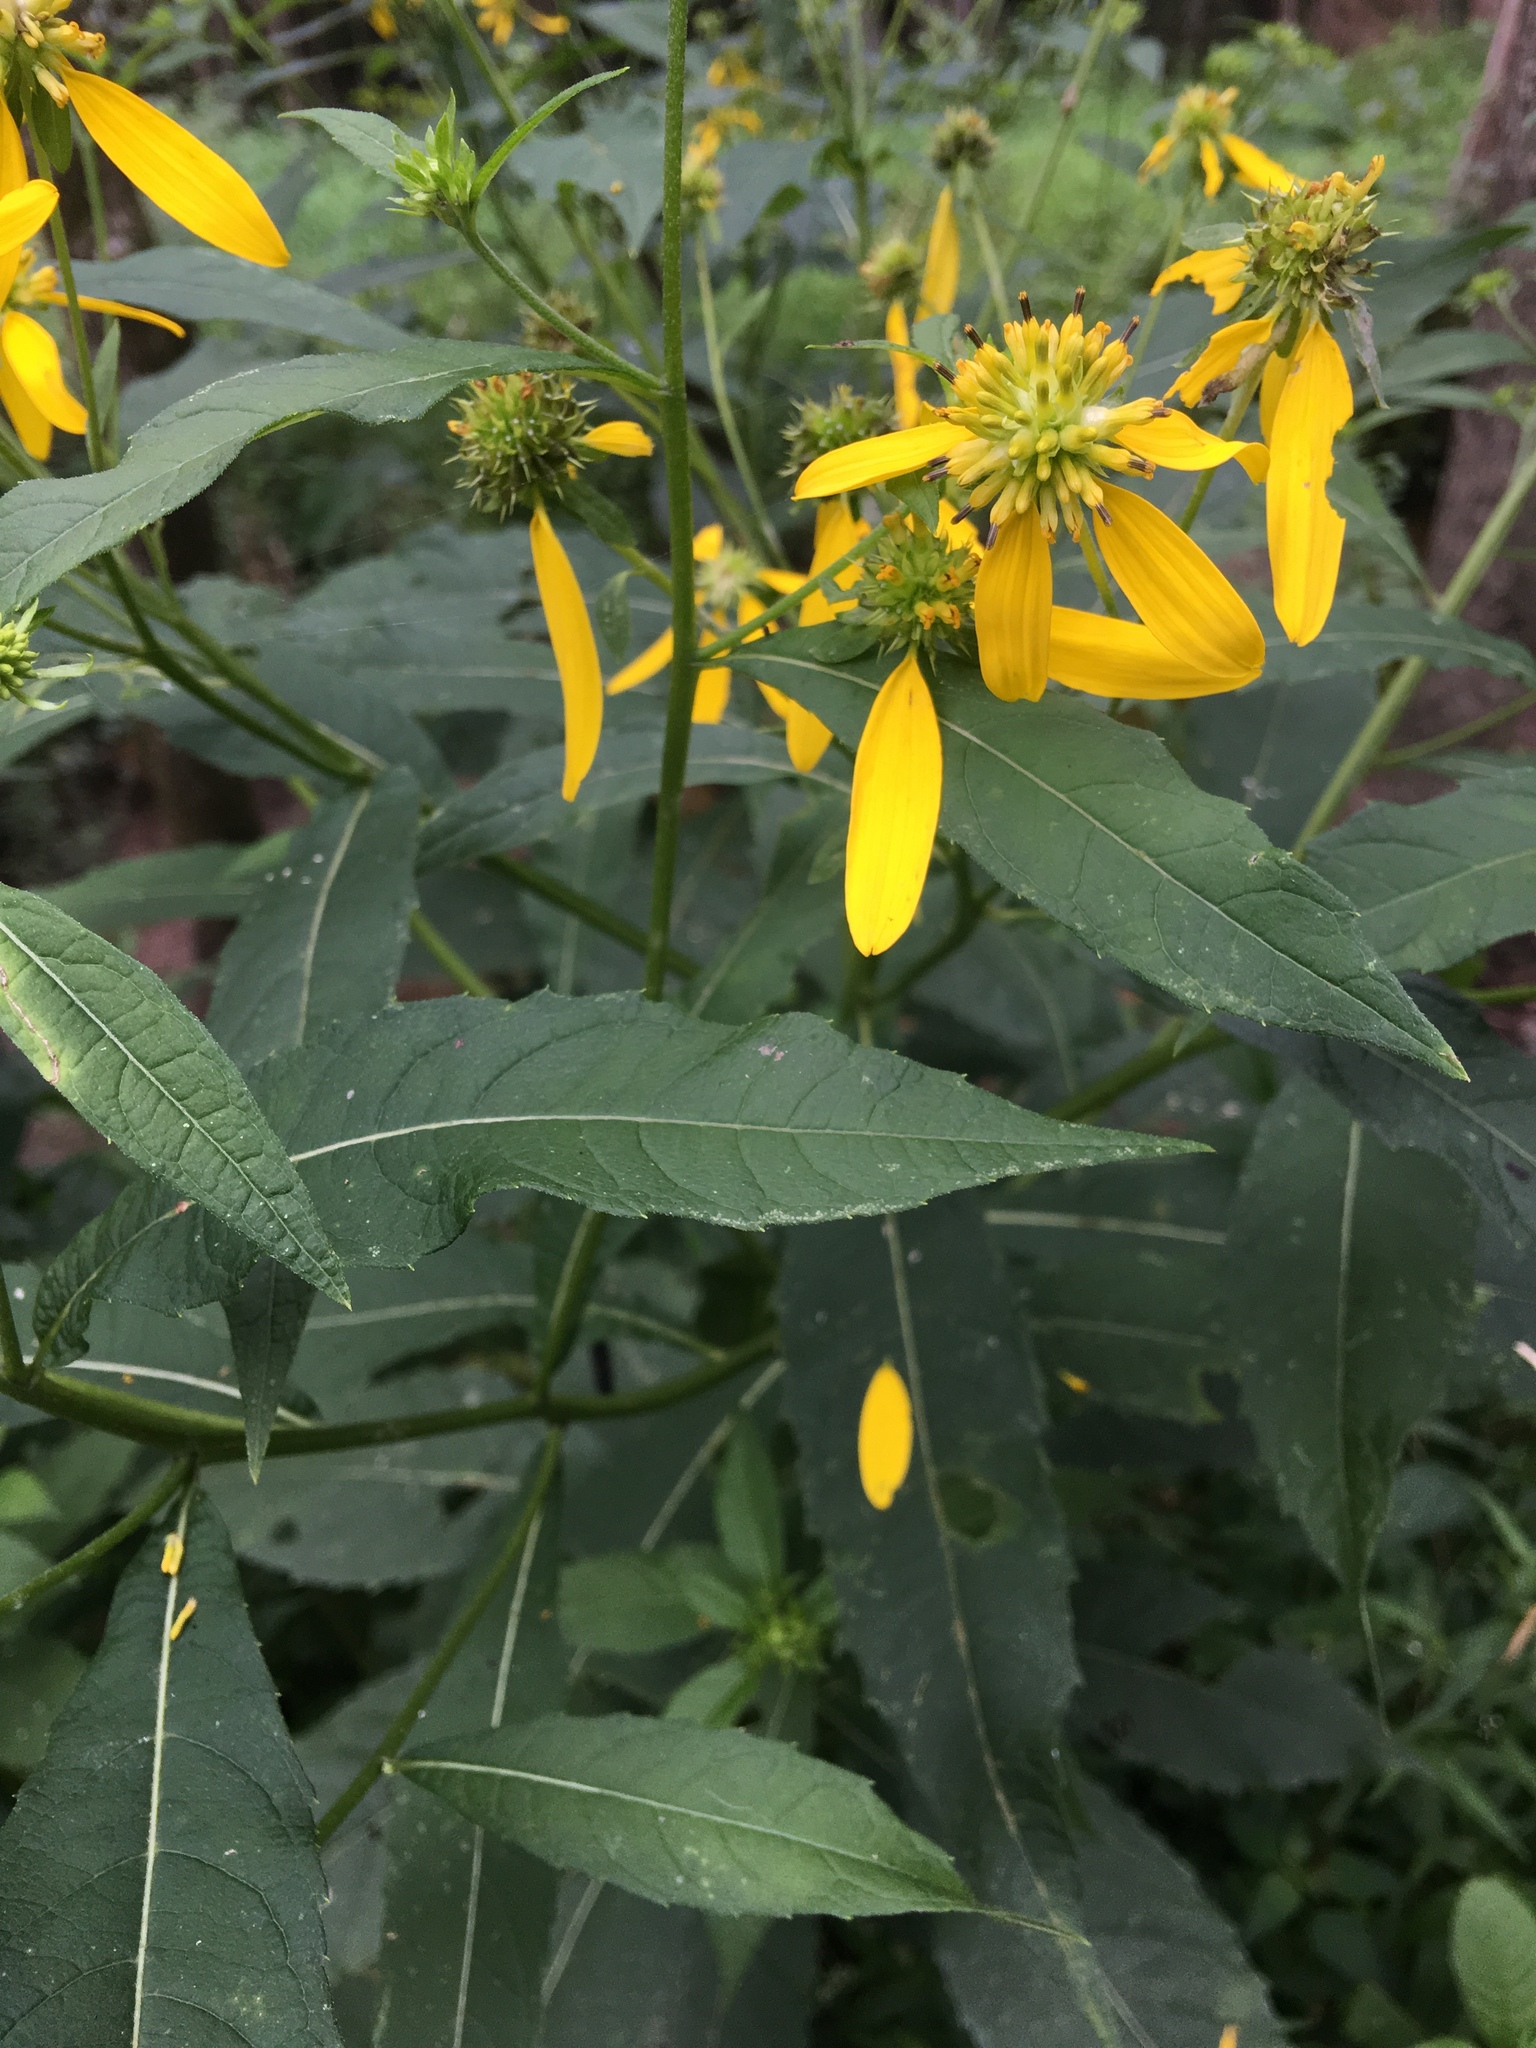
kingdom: Plantae
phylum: Tracheophyta
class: Magnoliopsida
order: Asterales
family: Asteraceae
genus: Verbesina
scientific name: Verbesina alternifolia
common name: Wingstem
